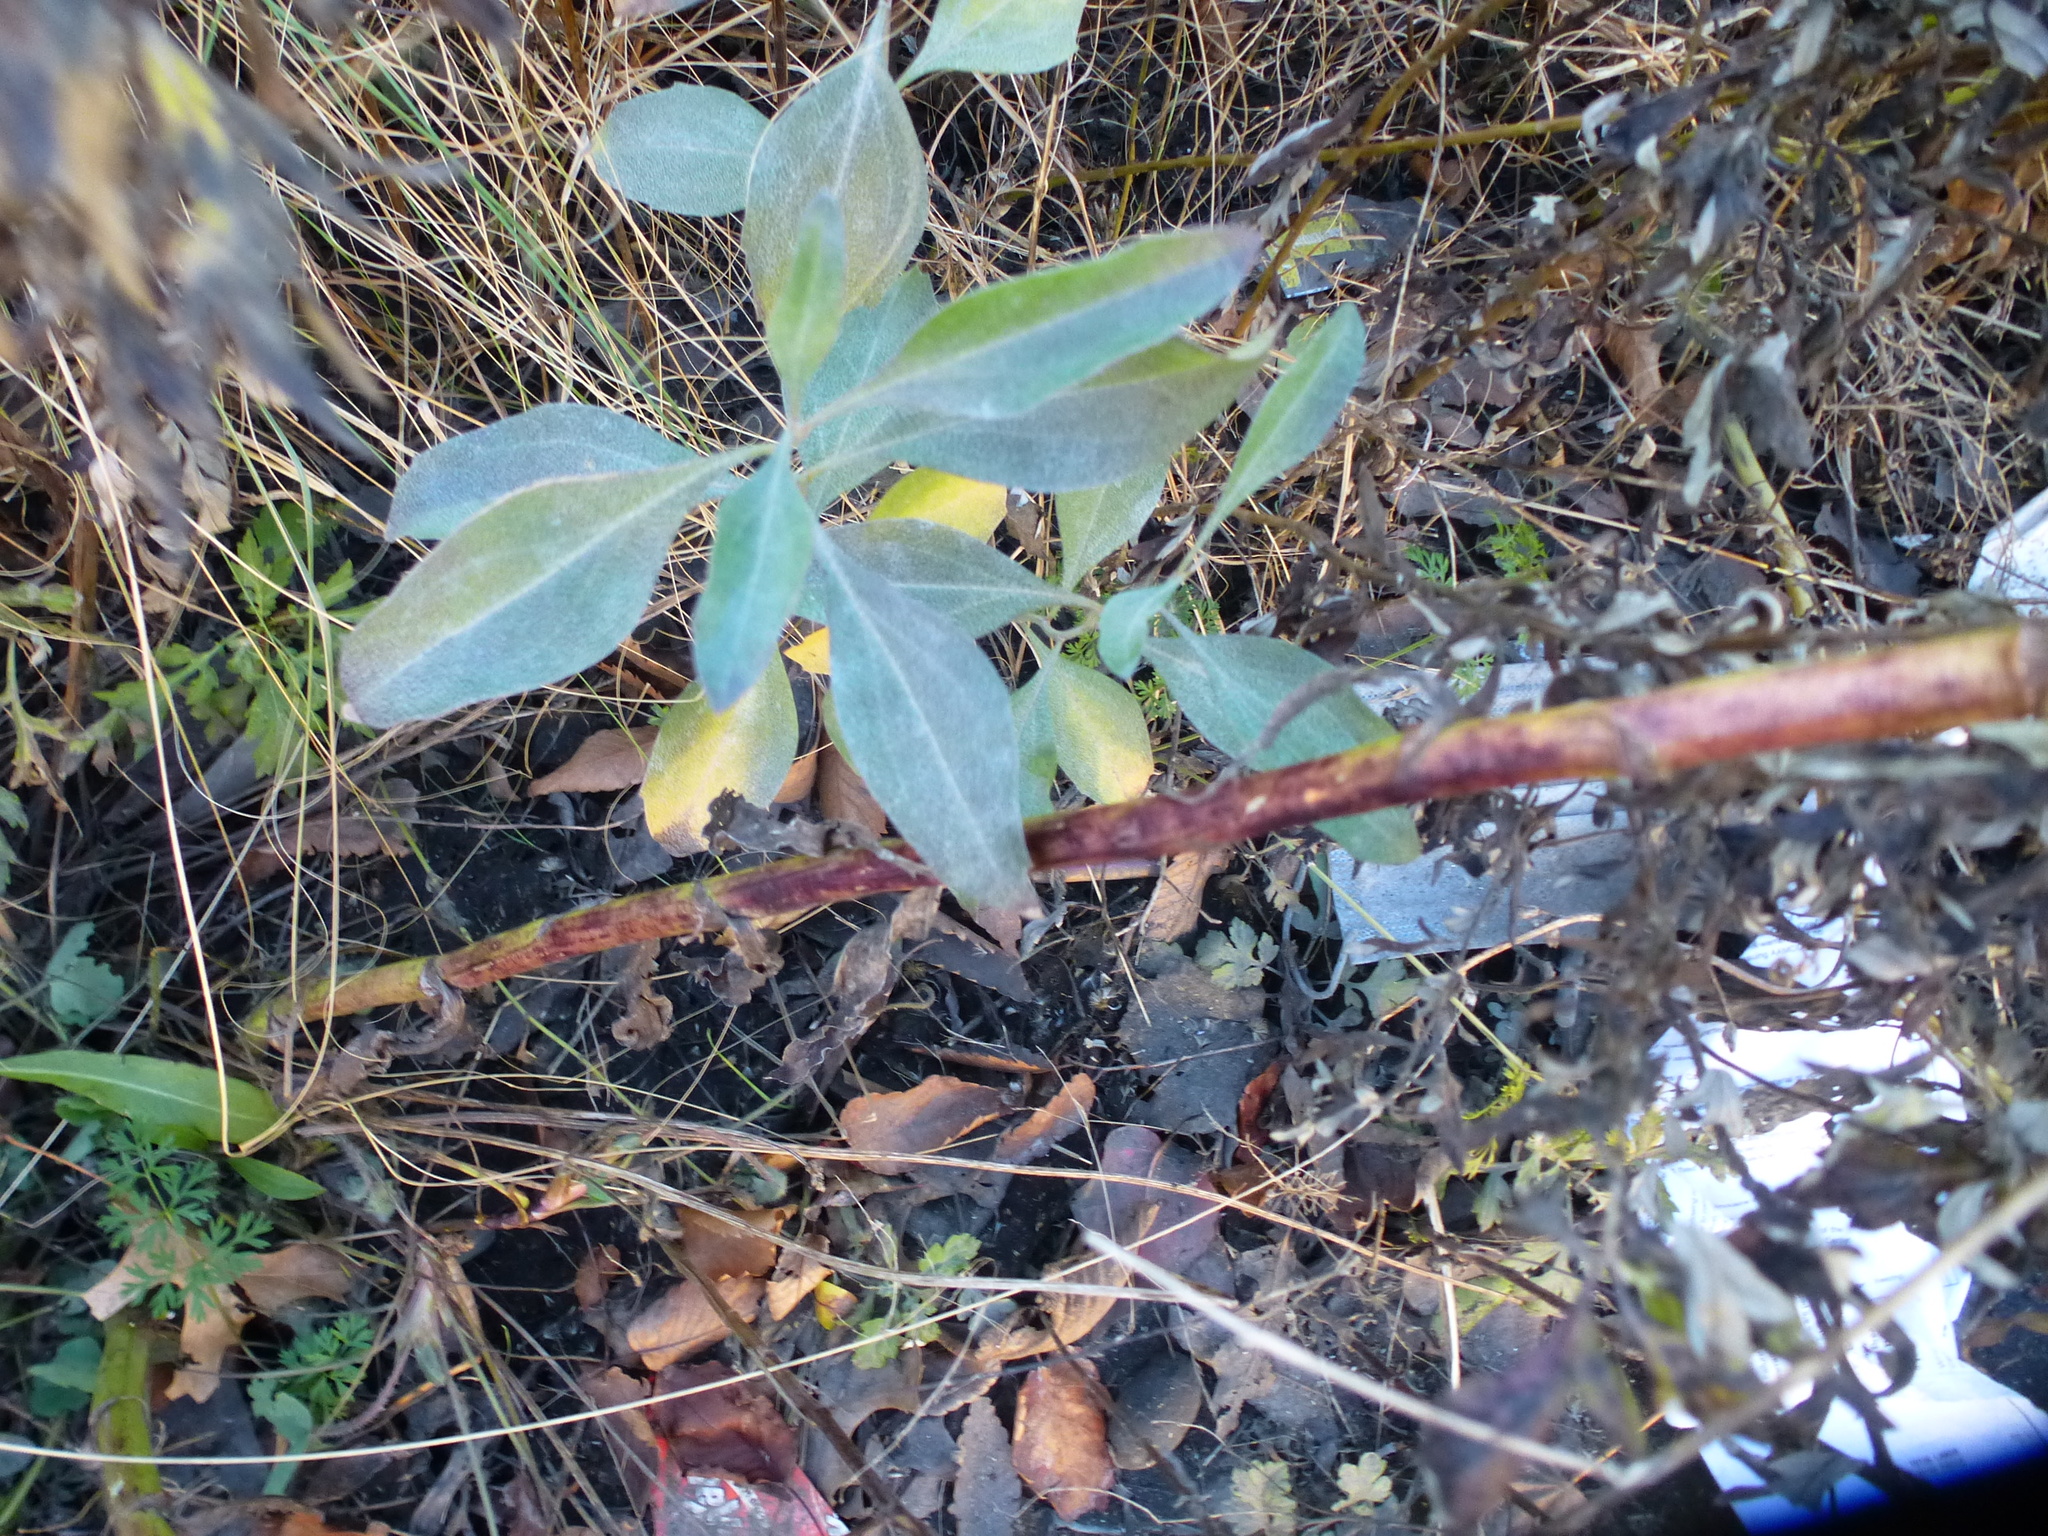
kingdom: Plantae
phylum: Tracheophyta
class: Magnoliopsida
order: Asterales
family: Asteraceae
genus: Baccharis
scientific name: Baccharis halimifolia
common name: Eastern baccharis
